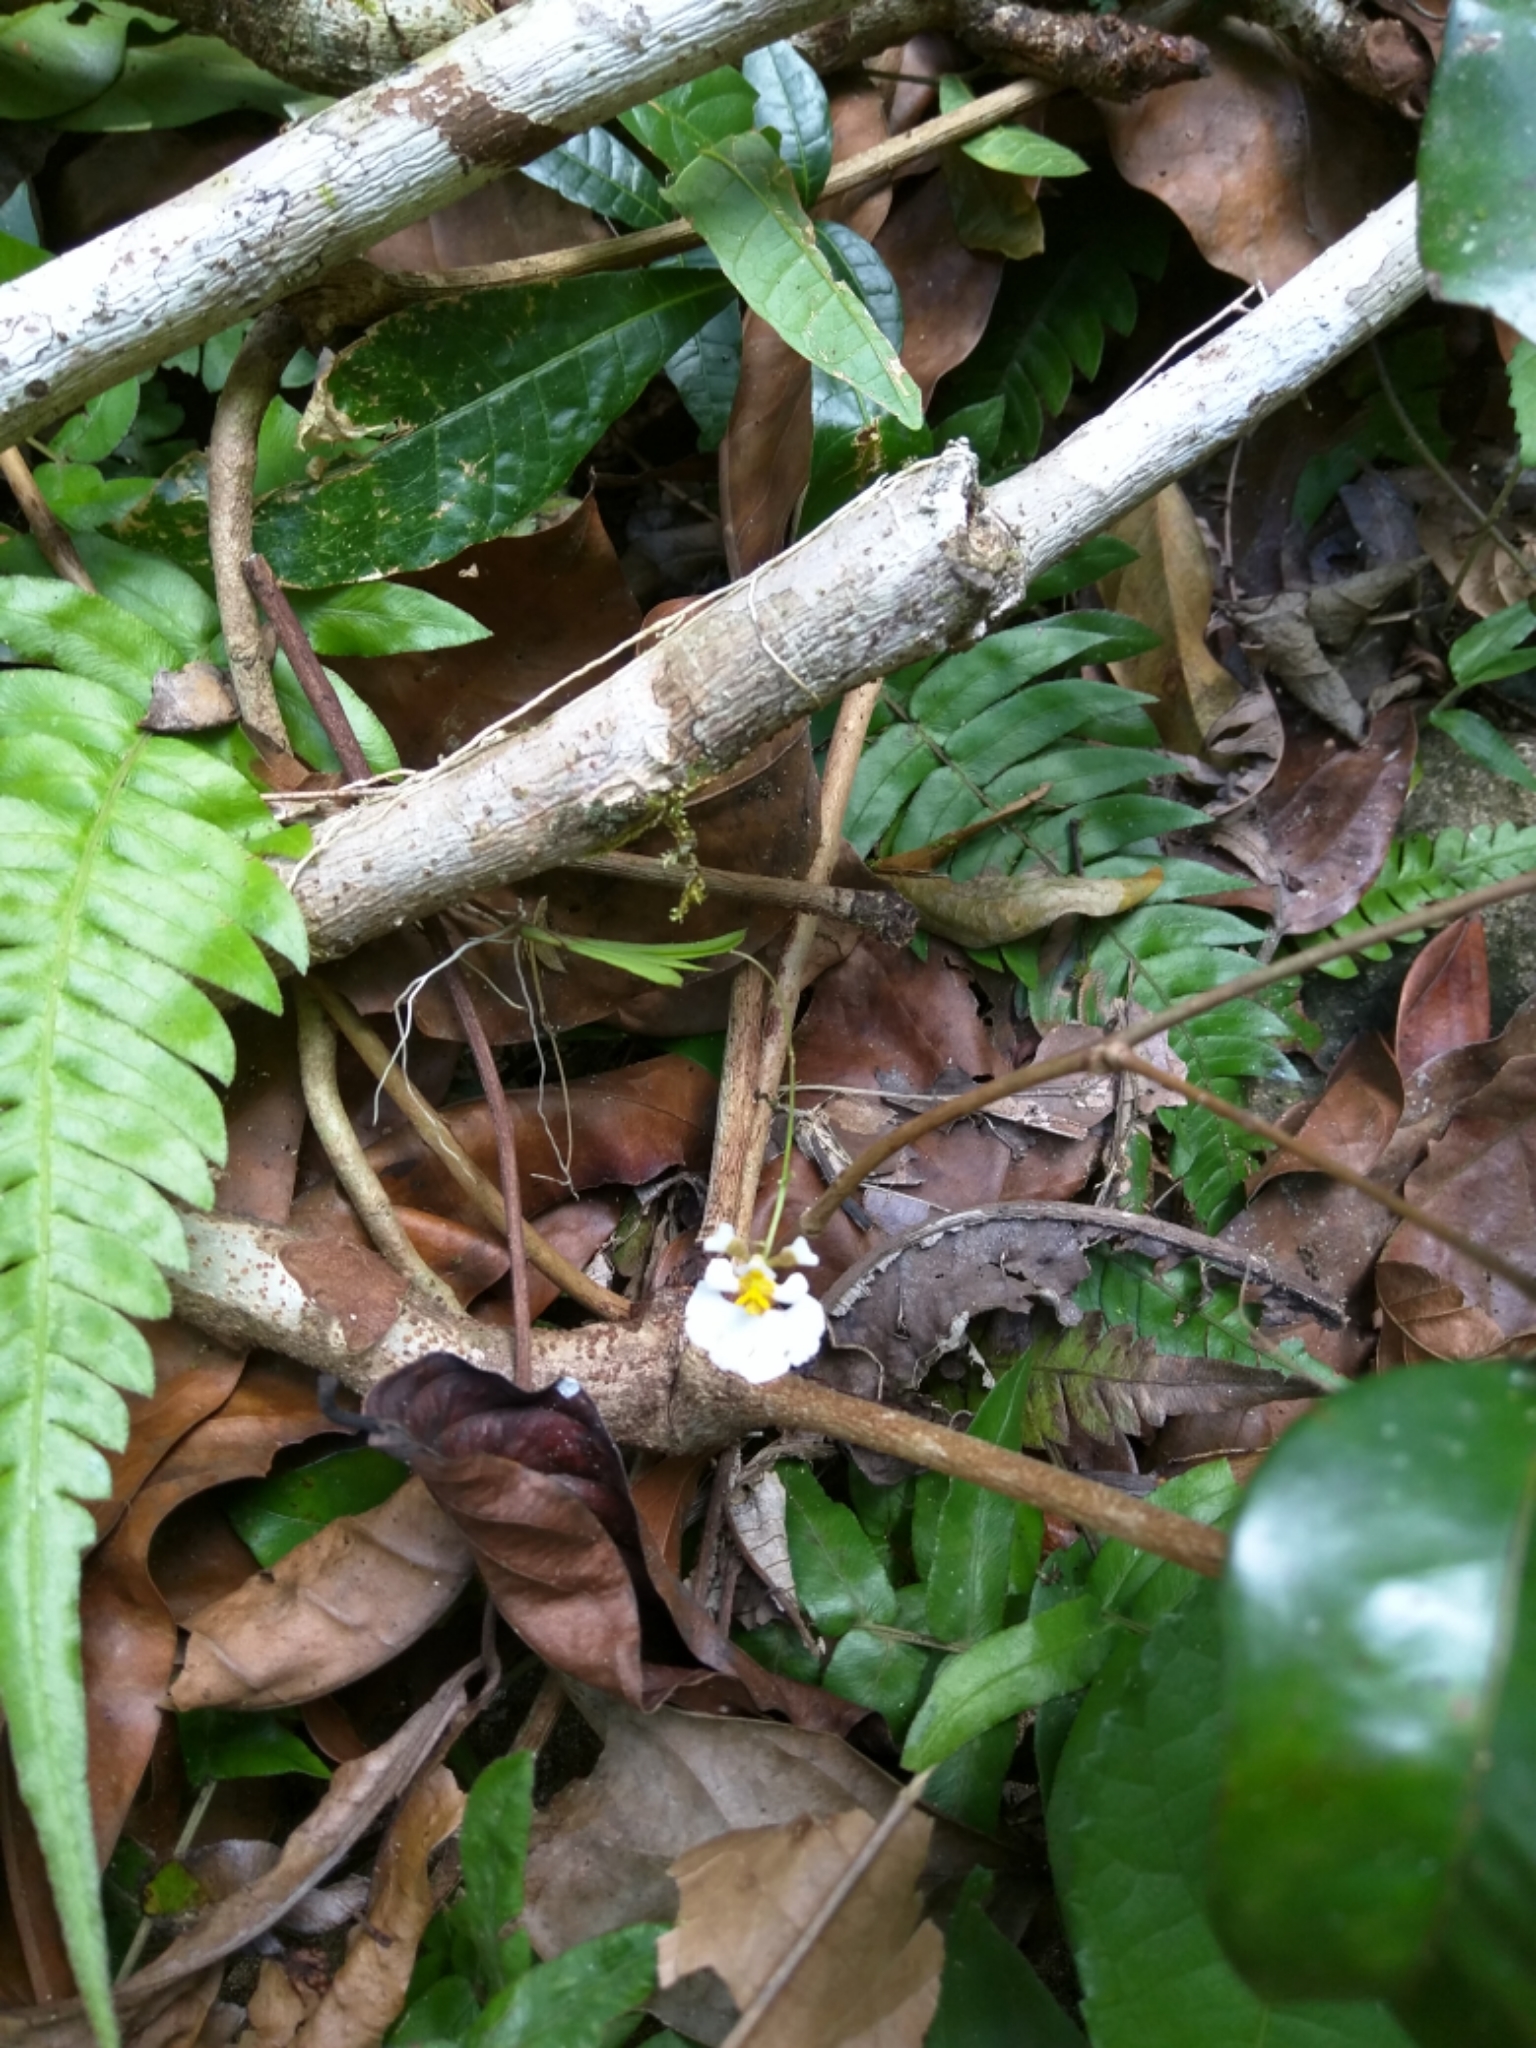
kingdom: Plantae
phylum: Tracheophyta
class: Liliopsida
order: Asparagales
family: Orchidaceae
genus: Tolumnia
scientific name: Tolumnia variegata
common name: Harlequin dancing-lady orchid
